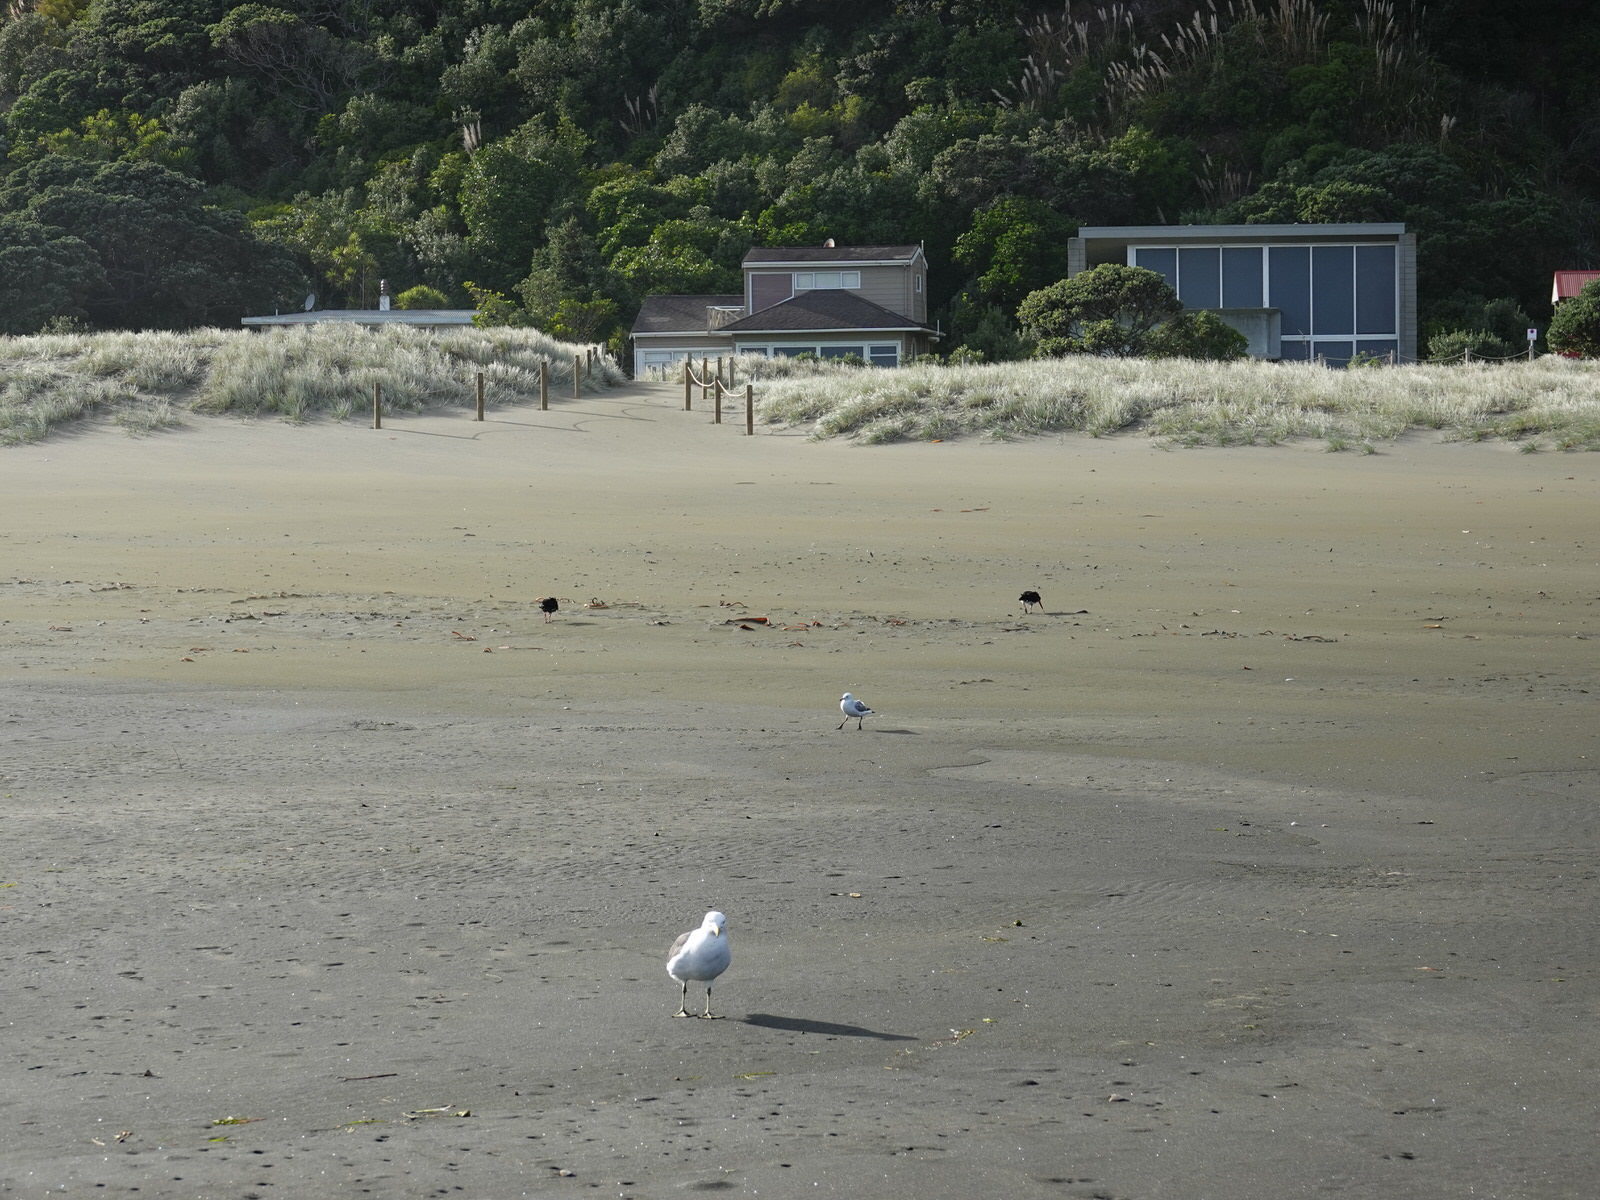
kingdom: Animalia
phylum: Chordata
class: Aves
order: Charadriiformes
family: Haematopodidae
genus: Haematopus
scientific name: Haematopus unicolor
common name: Variable oystercatcher
